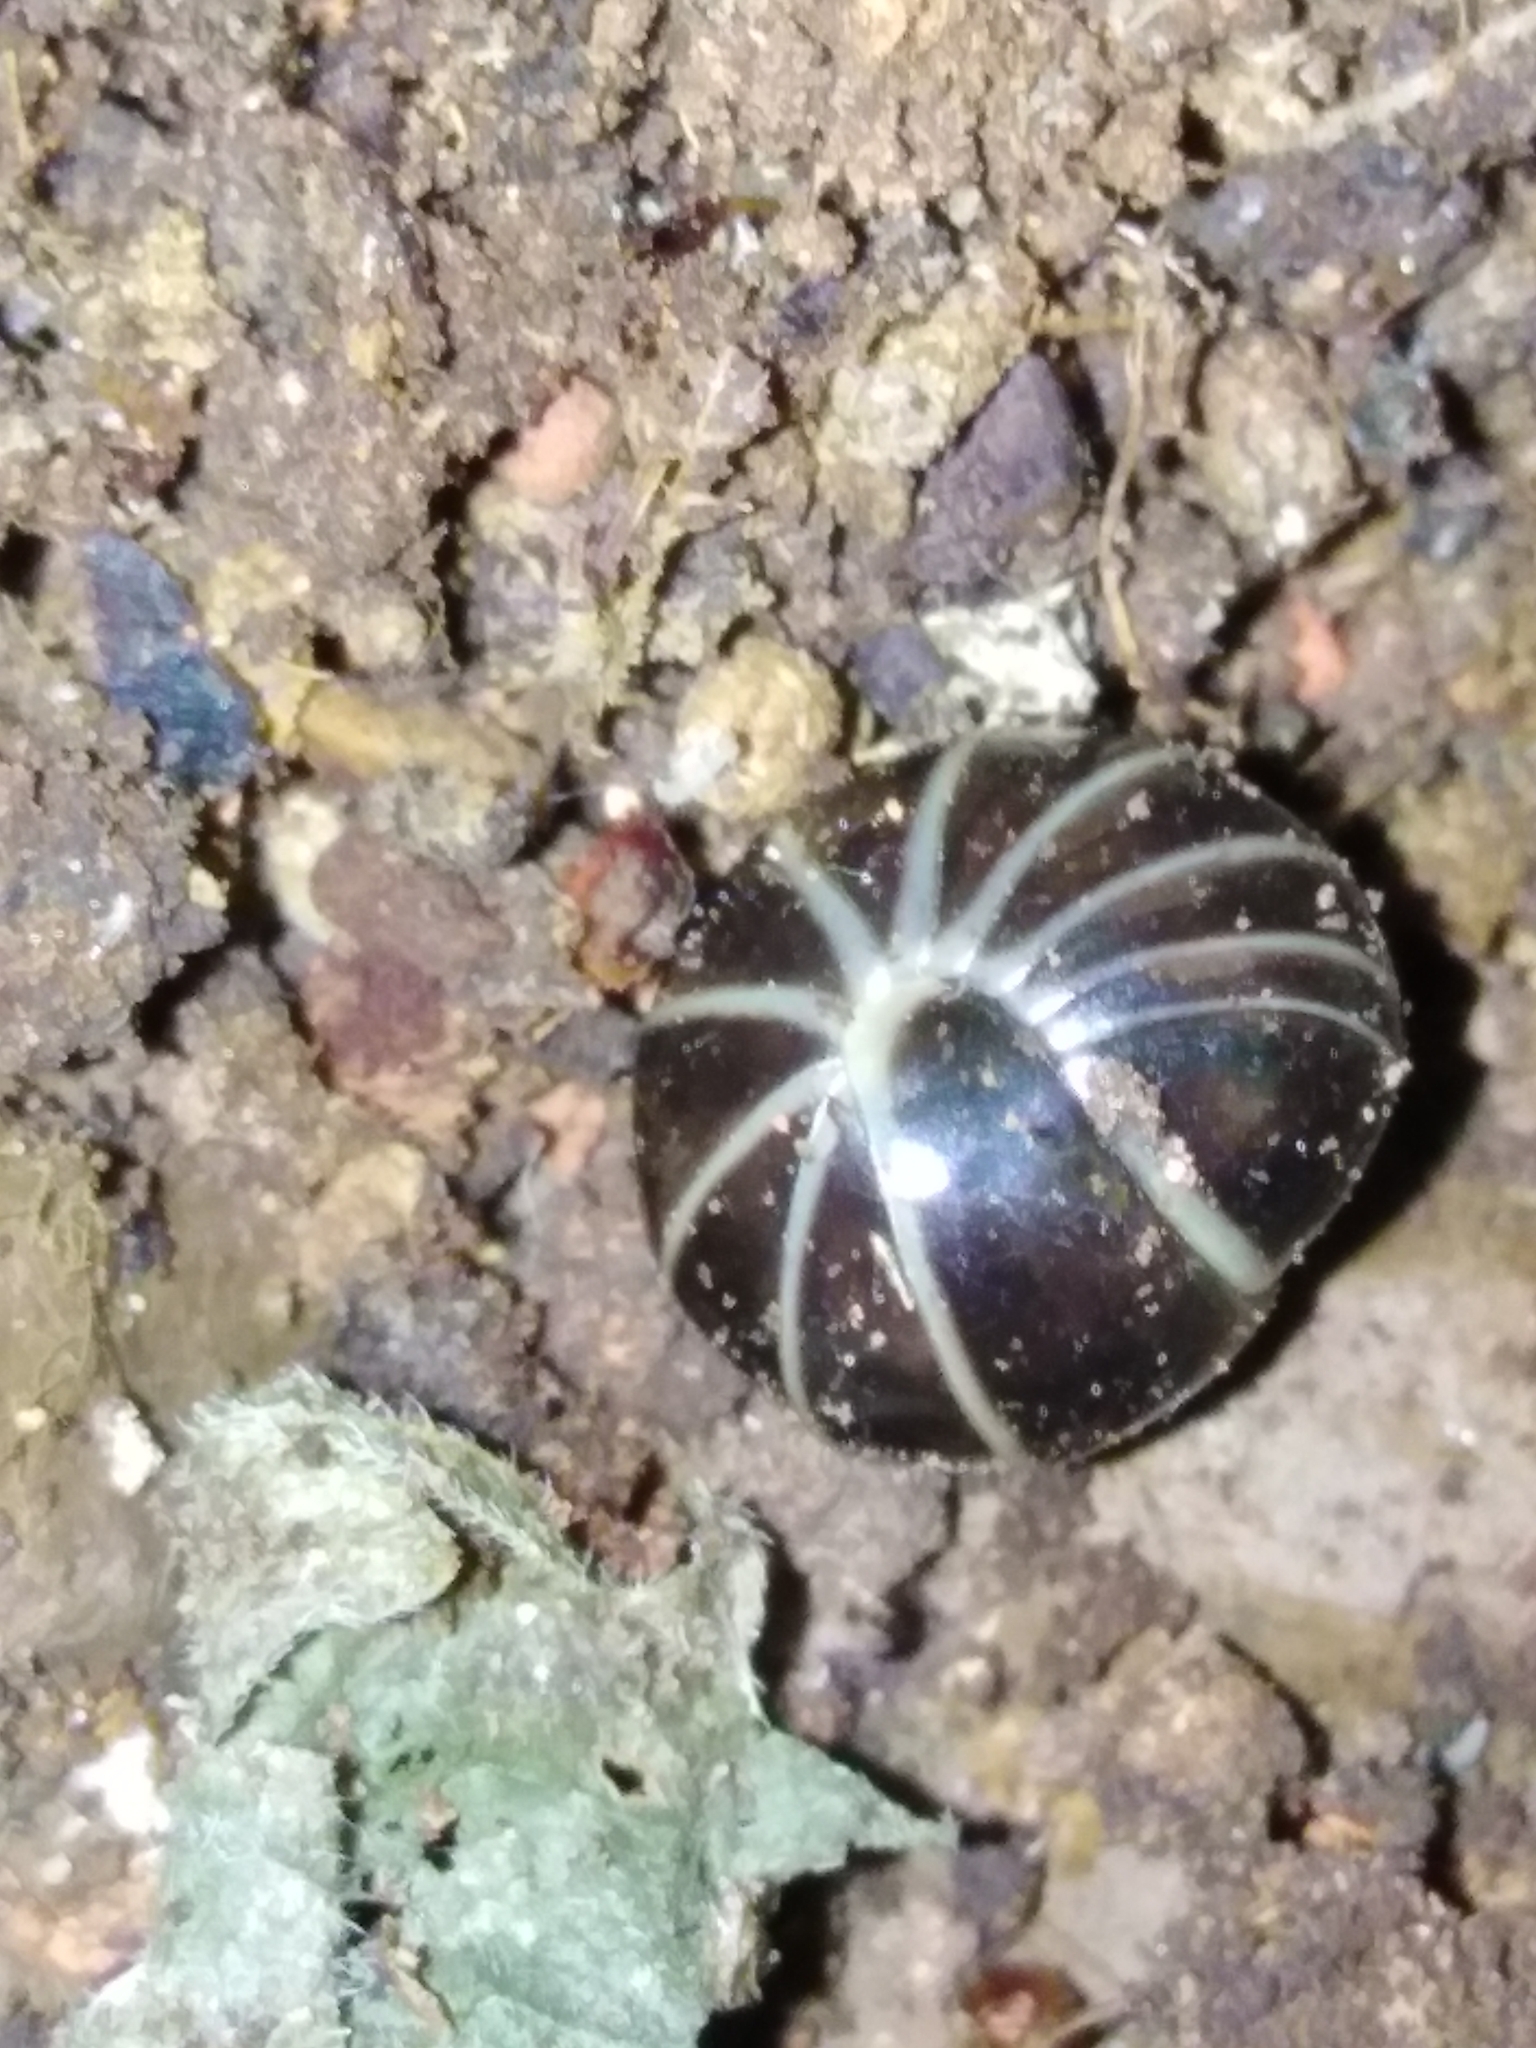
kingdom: Animalia
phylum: Arthropoda
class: Diplopoda
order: Glomerida
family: Glomeridae
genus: Glomeris
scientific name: Glomeris marginata
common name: Bordered pill millipede
